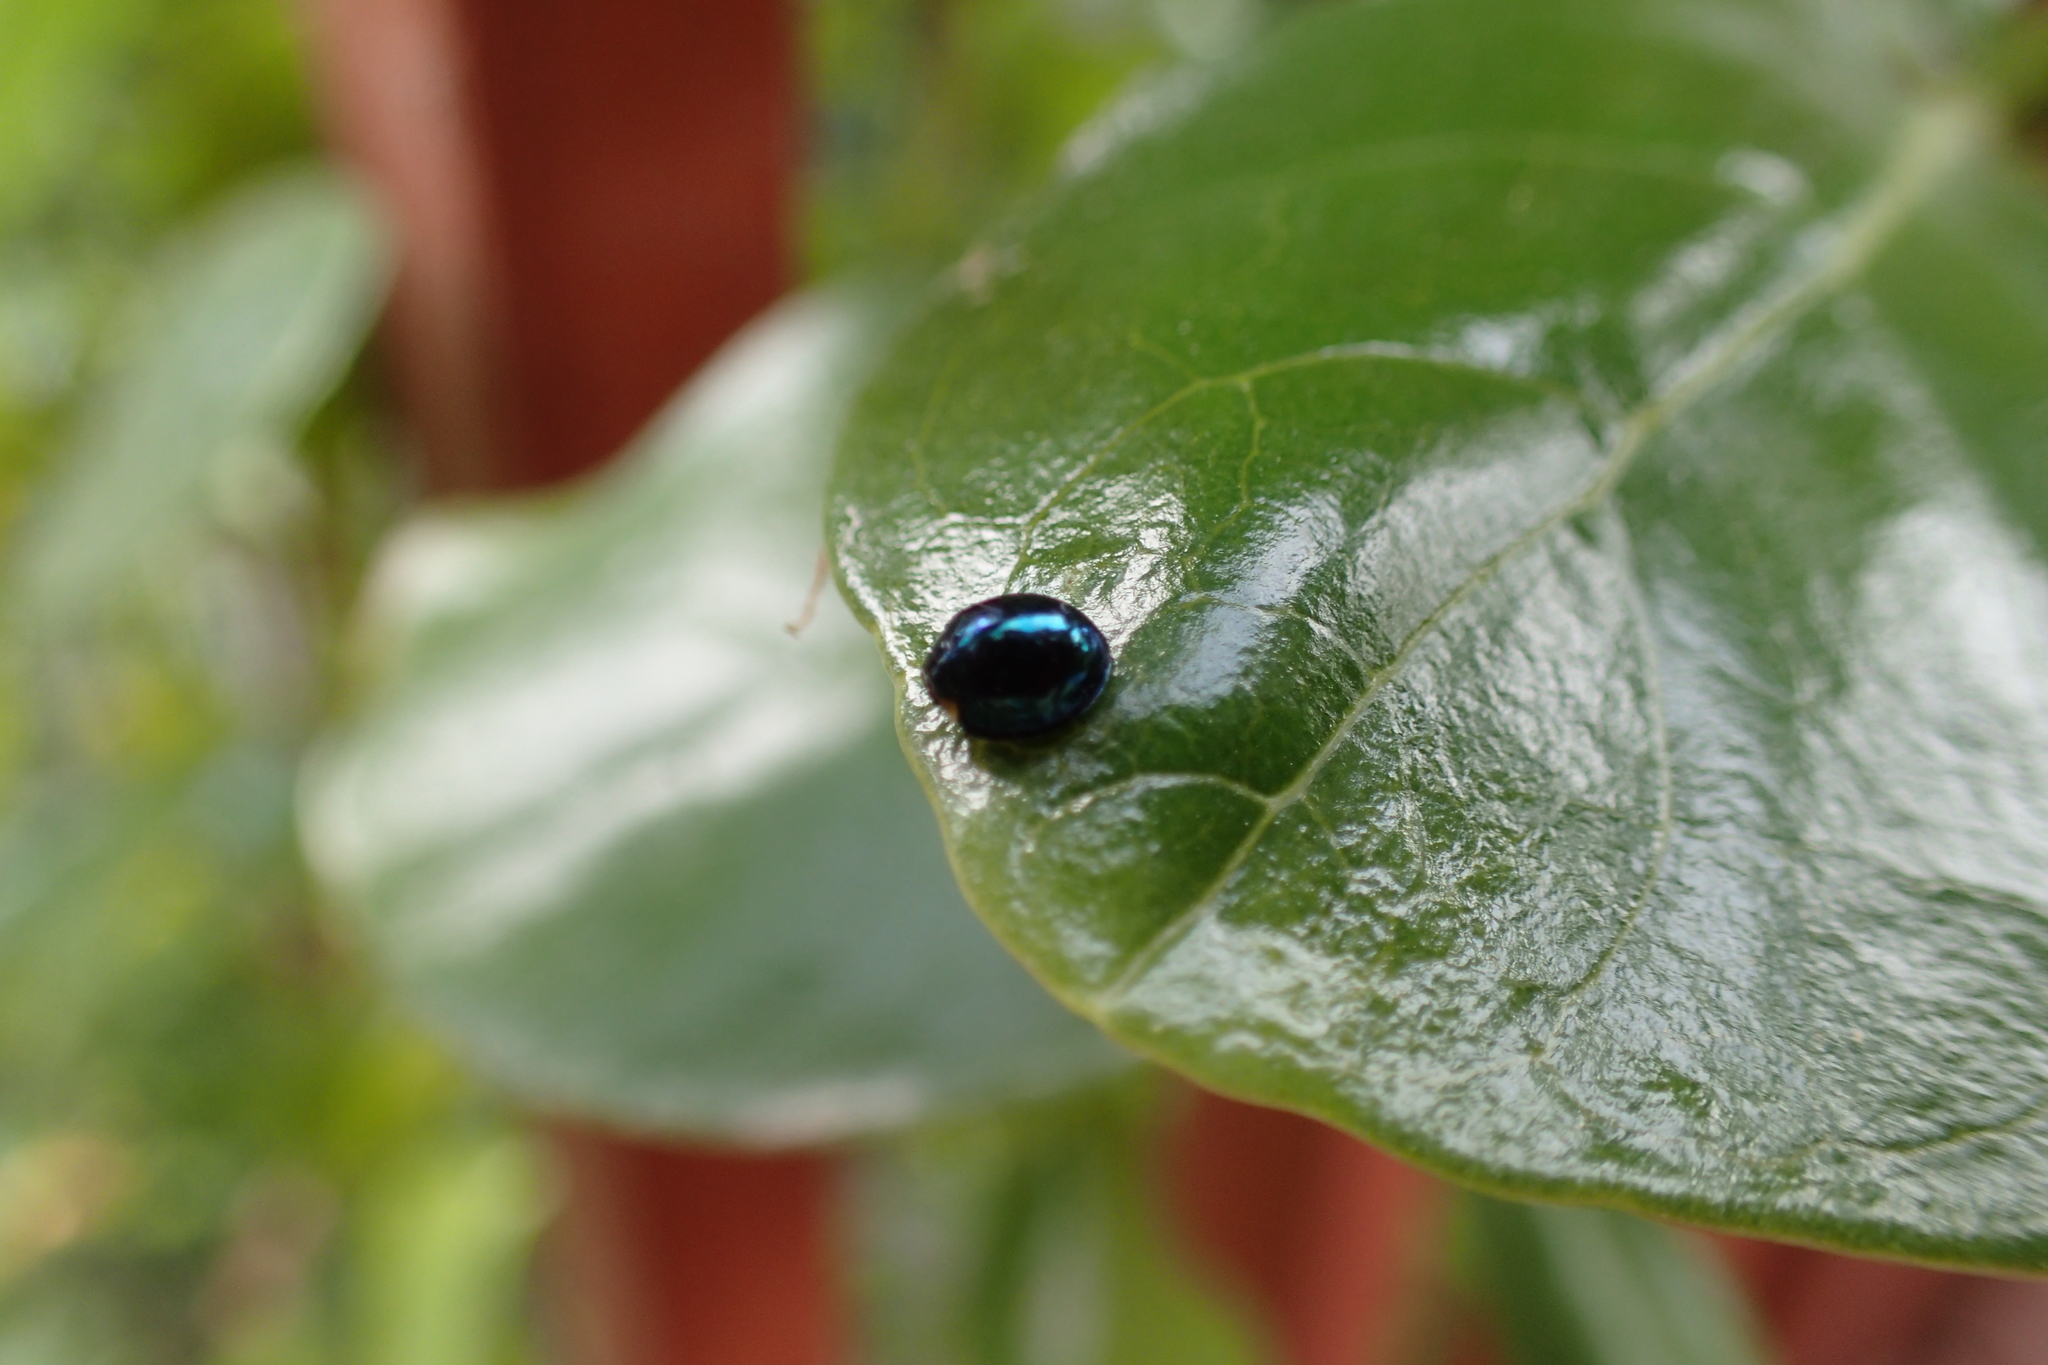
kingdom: Animalia
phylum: Arthropoda
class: Insecta
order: Coleoptera
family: Coccinellidae
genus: Halmus
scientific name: Halmus chalybeus
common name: Steel blue ladybird beetle
